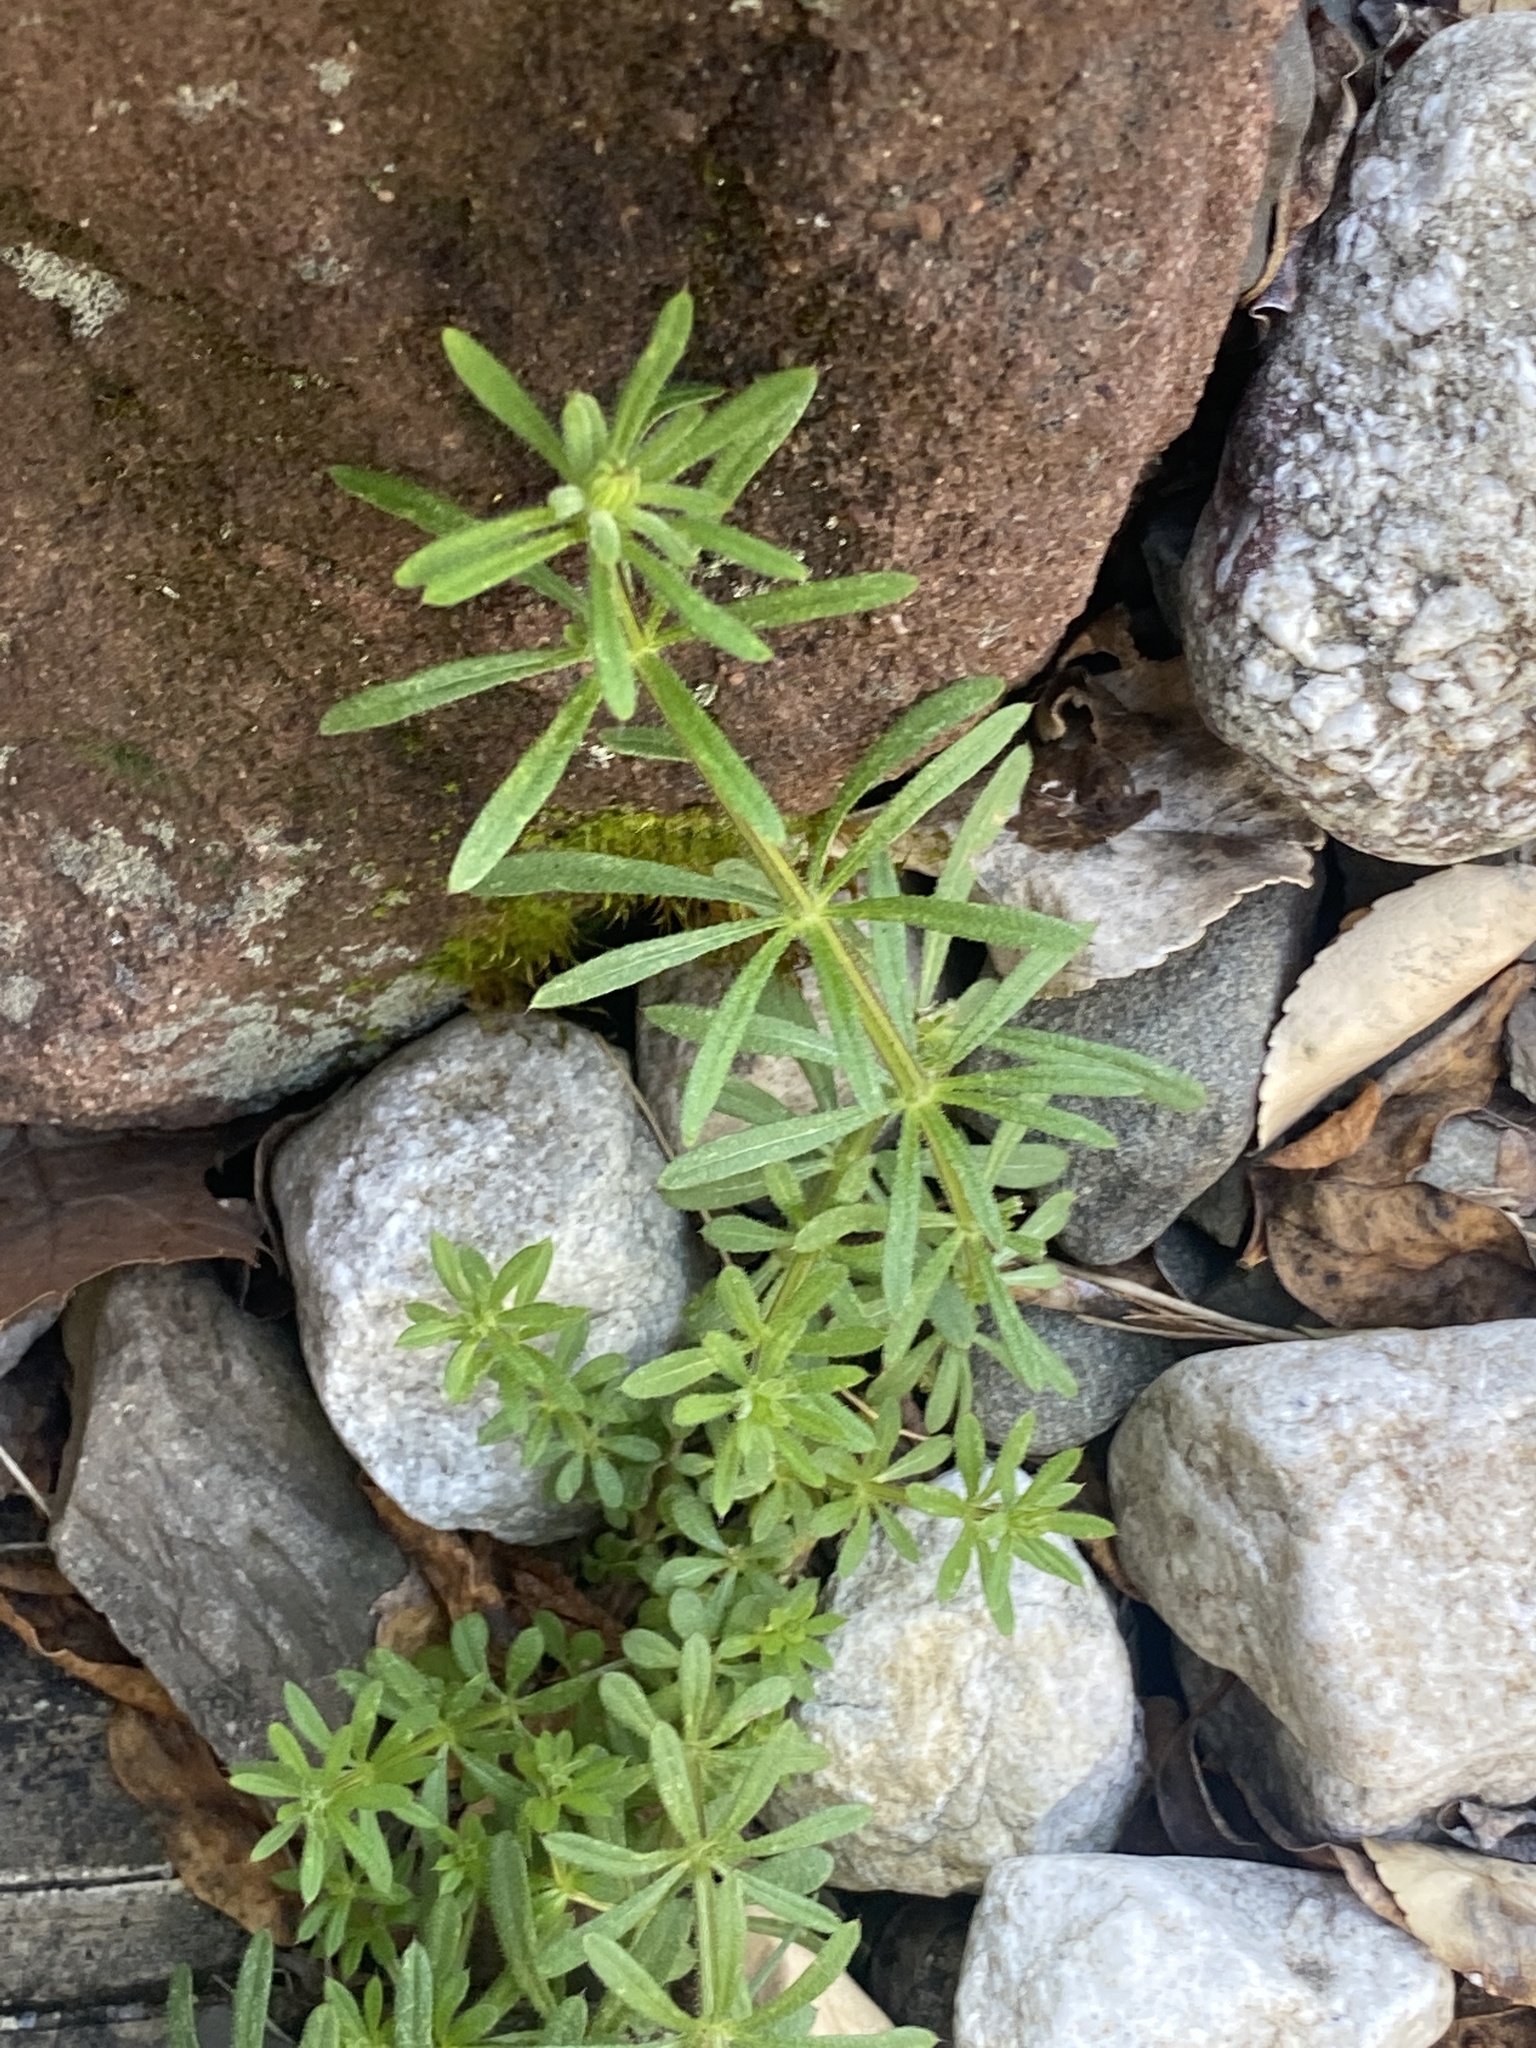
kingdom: Plantae
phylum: Tracheophyta
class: Magnoliopsida
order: Gentianales
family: Rubiaceae
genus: Galium
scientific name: Galium aparine
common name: Cleavers
